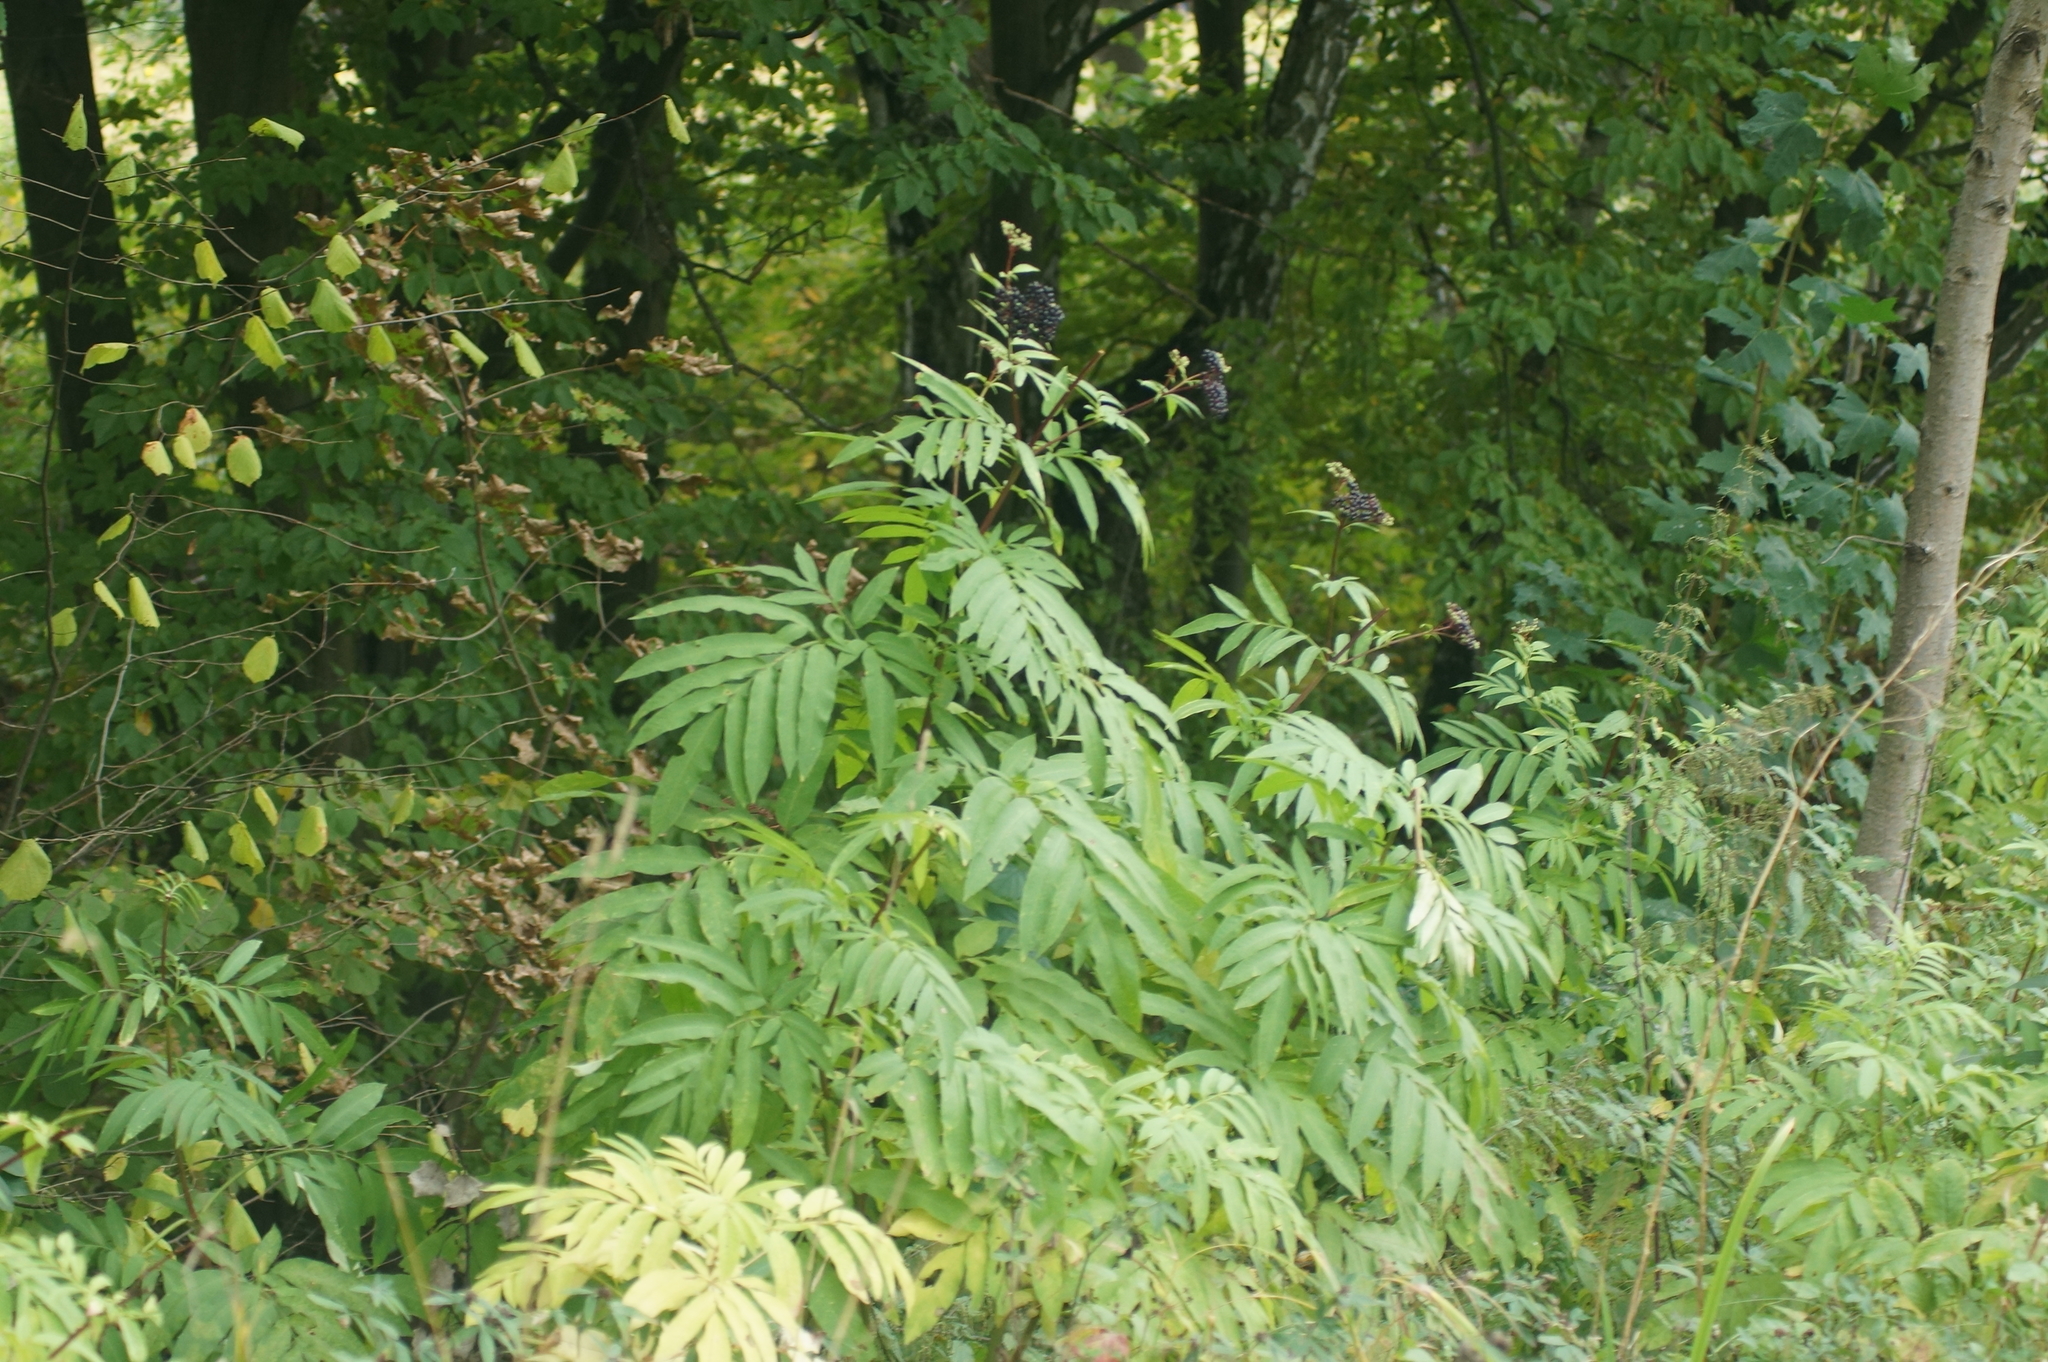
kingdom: Plantae
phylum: Tracheophyta
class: Magnoliopsida
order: Dipsacales
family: Viburnaceae
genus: Sambucus
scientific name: Sambucus ebulus
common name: Dwarf elder
